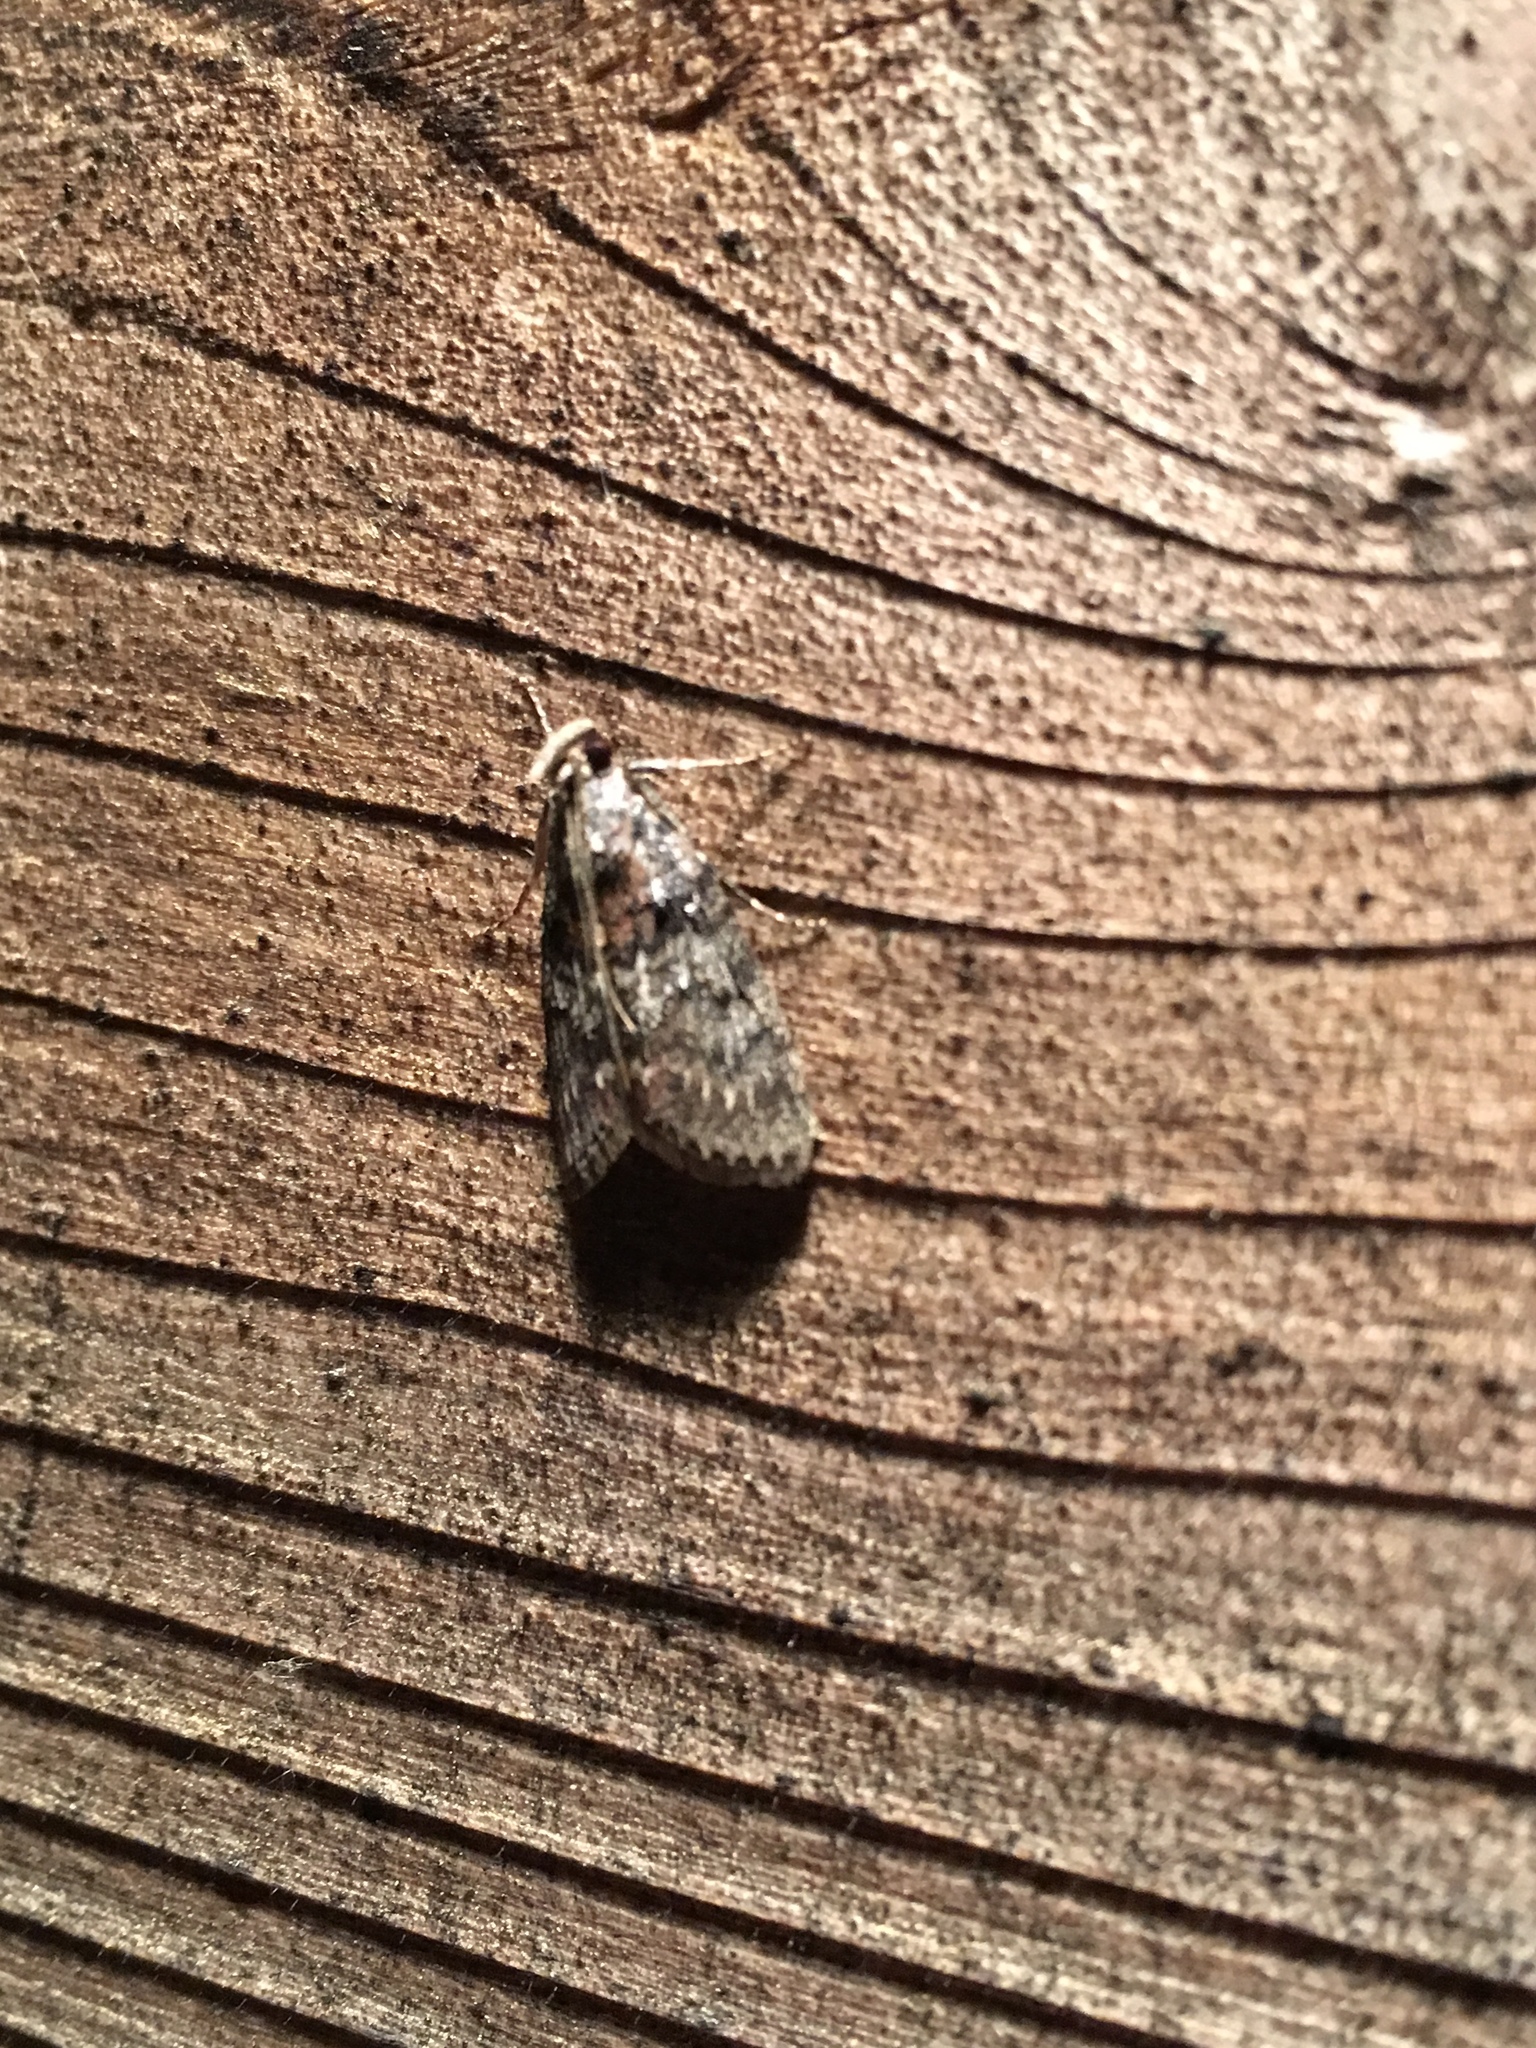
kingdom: Animalia
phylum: Arthropoda
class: Insecta
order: Lepidoptera
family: Pyralidae
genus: Pococera
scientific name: Pococera asperatella
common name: Maple webworm moth
